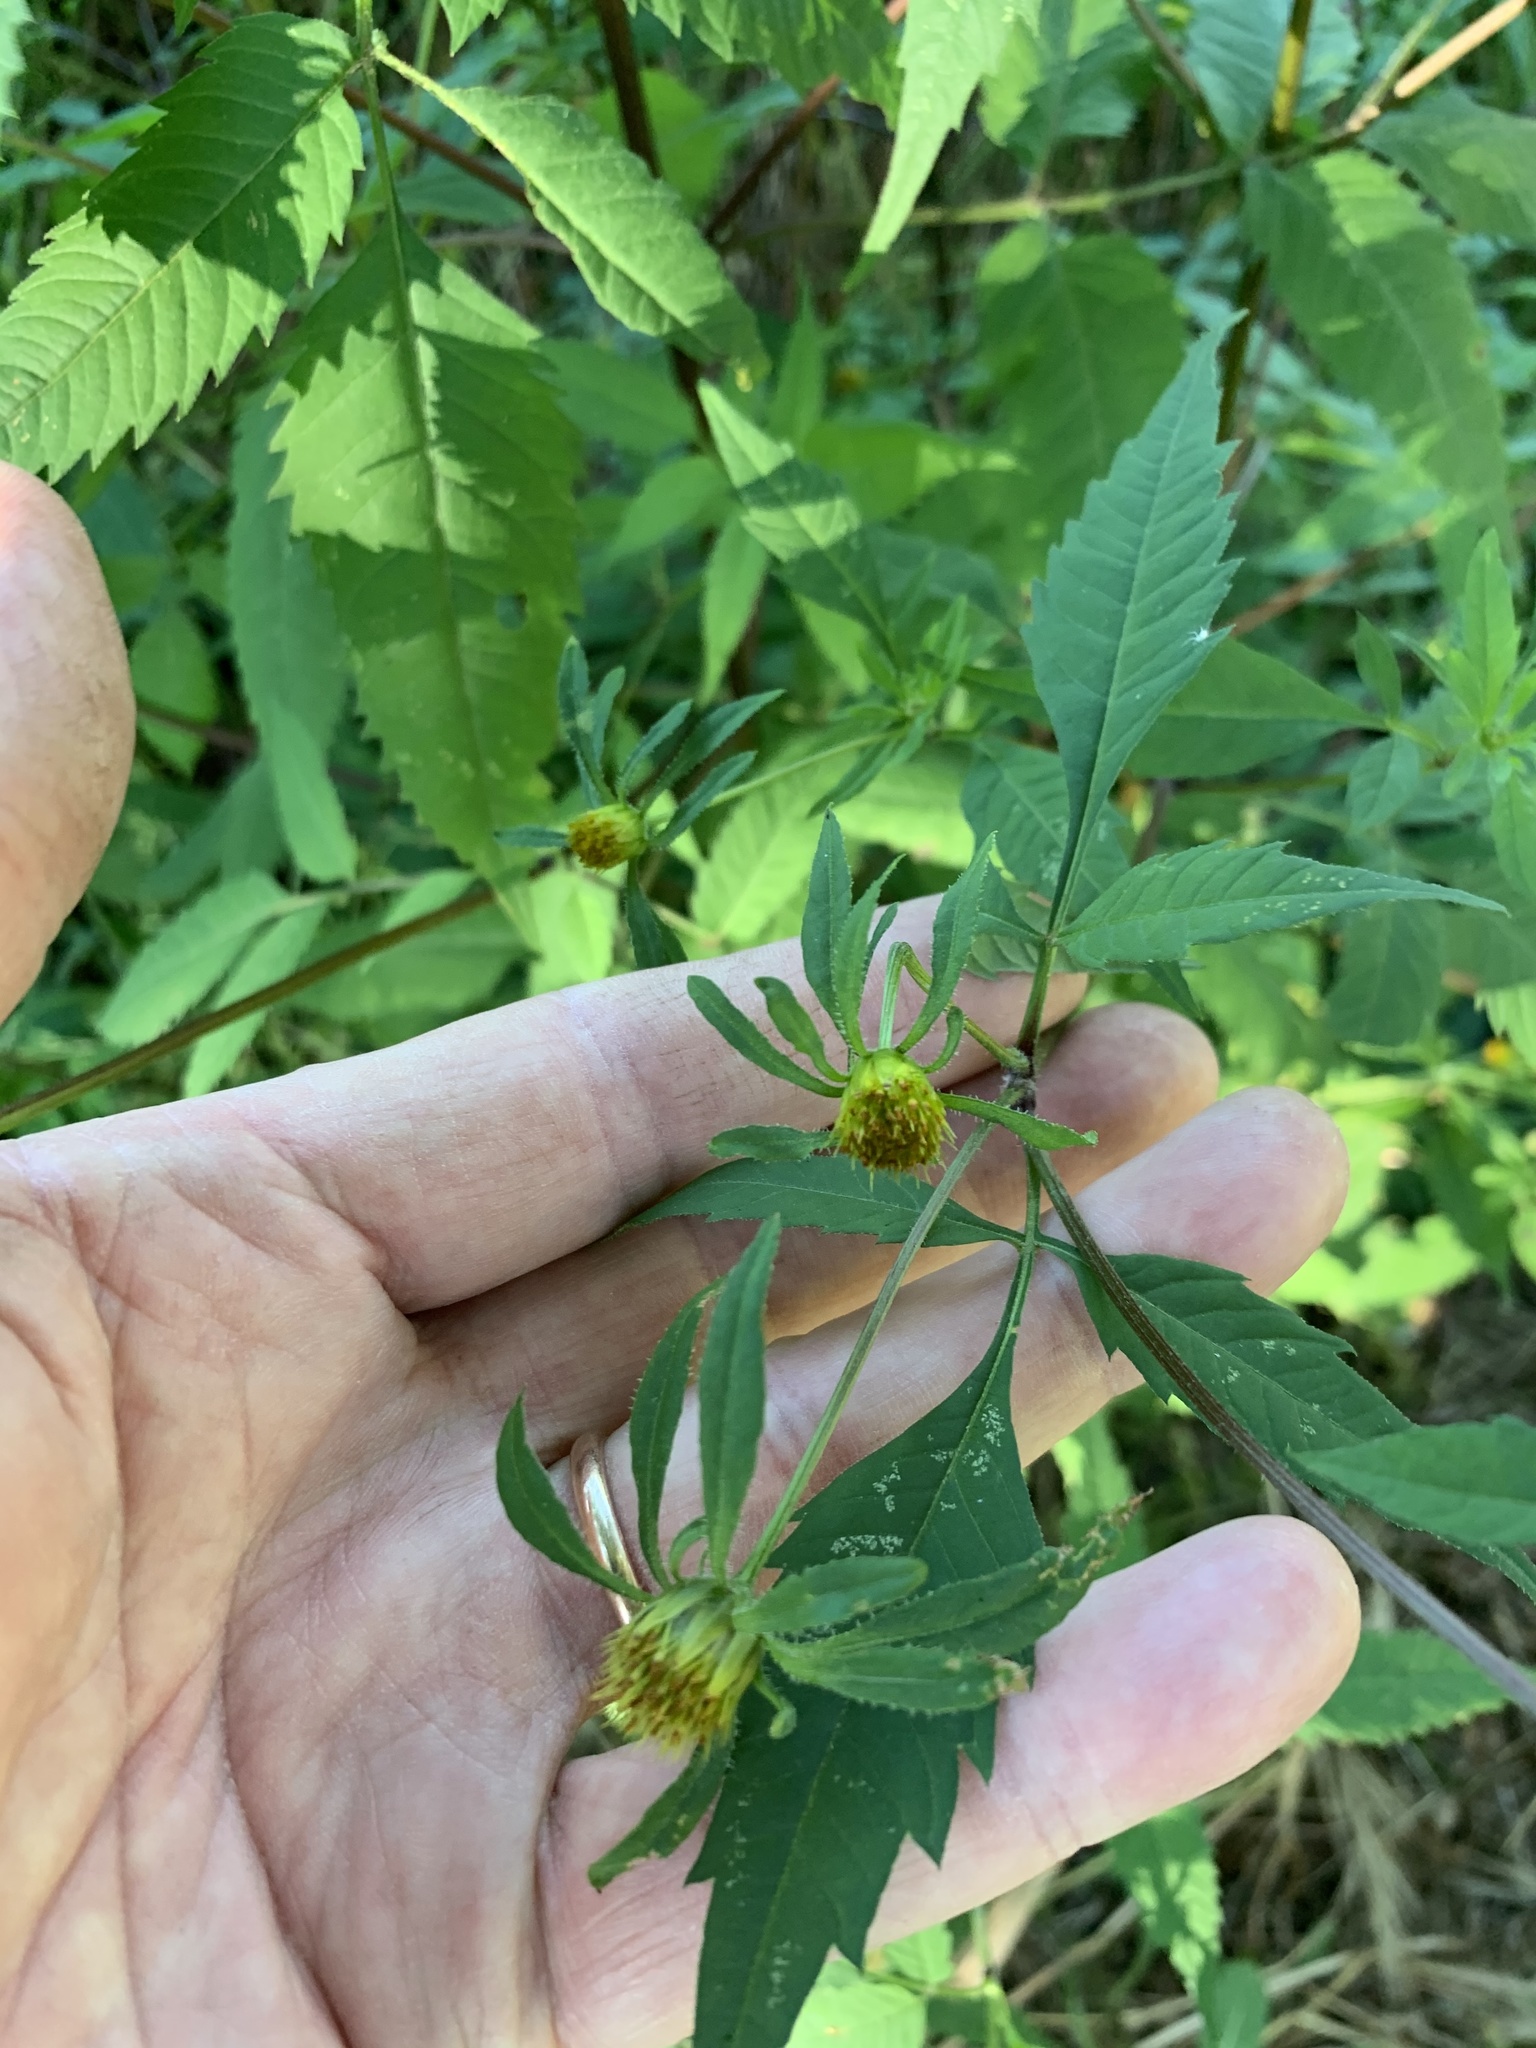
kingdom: Plantae
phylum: Tracheophyta
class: Magnoliopsida
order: Asterales
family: Asteraceae
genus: Bidens
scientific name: Bidens frondosa
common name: Beggarticks
